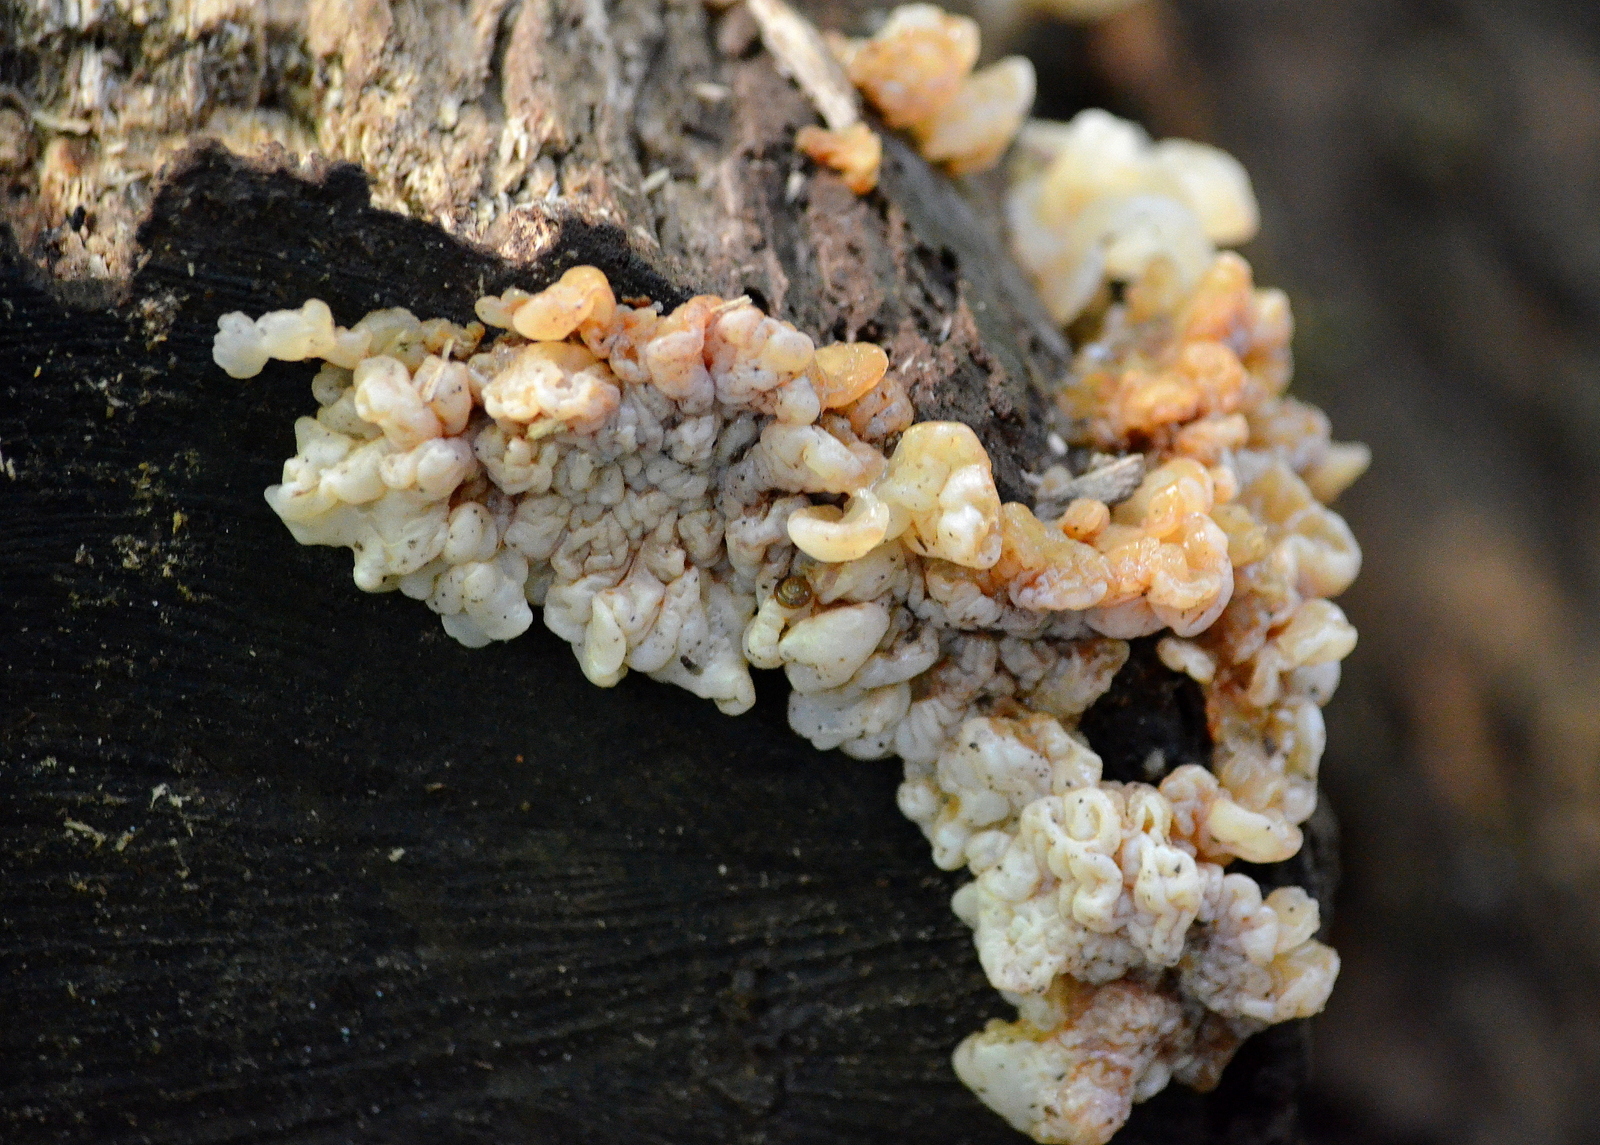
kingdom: Fungi
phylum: Basidiomycota
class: Agaricomycetes
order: Auriculariales
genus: Ductifera
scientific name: Ductifera pululahuana
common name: White jelly fungus
